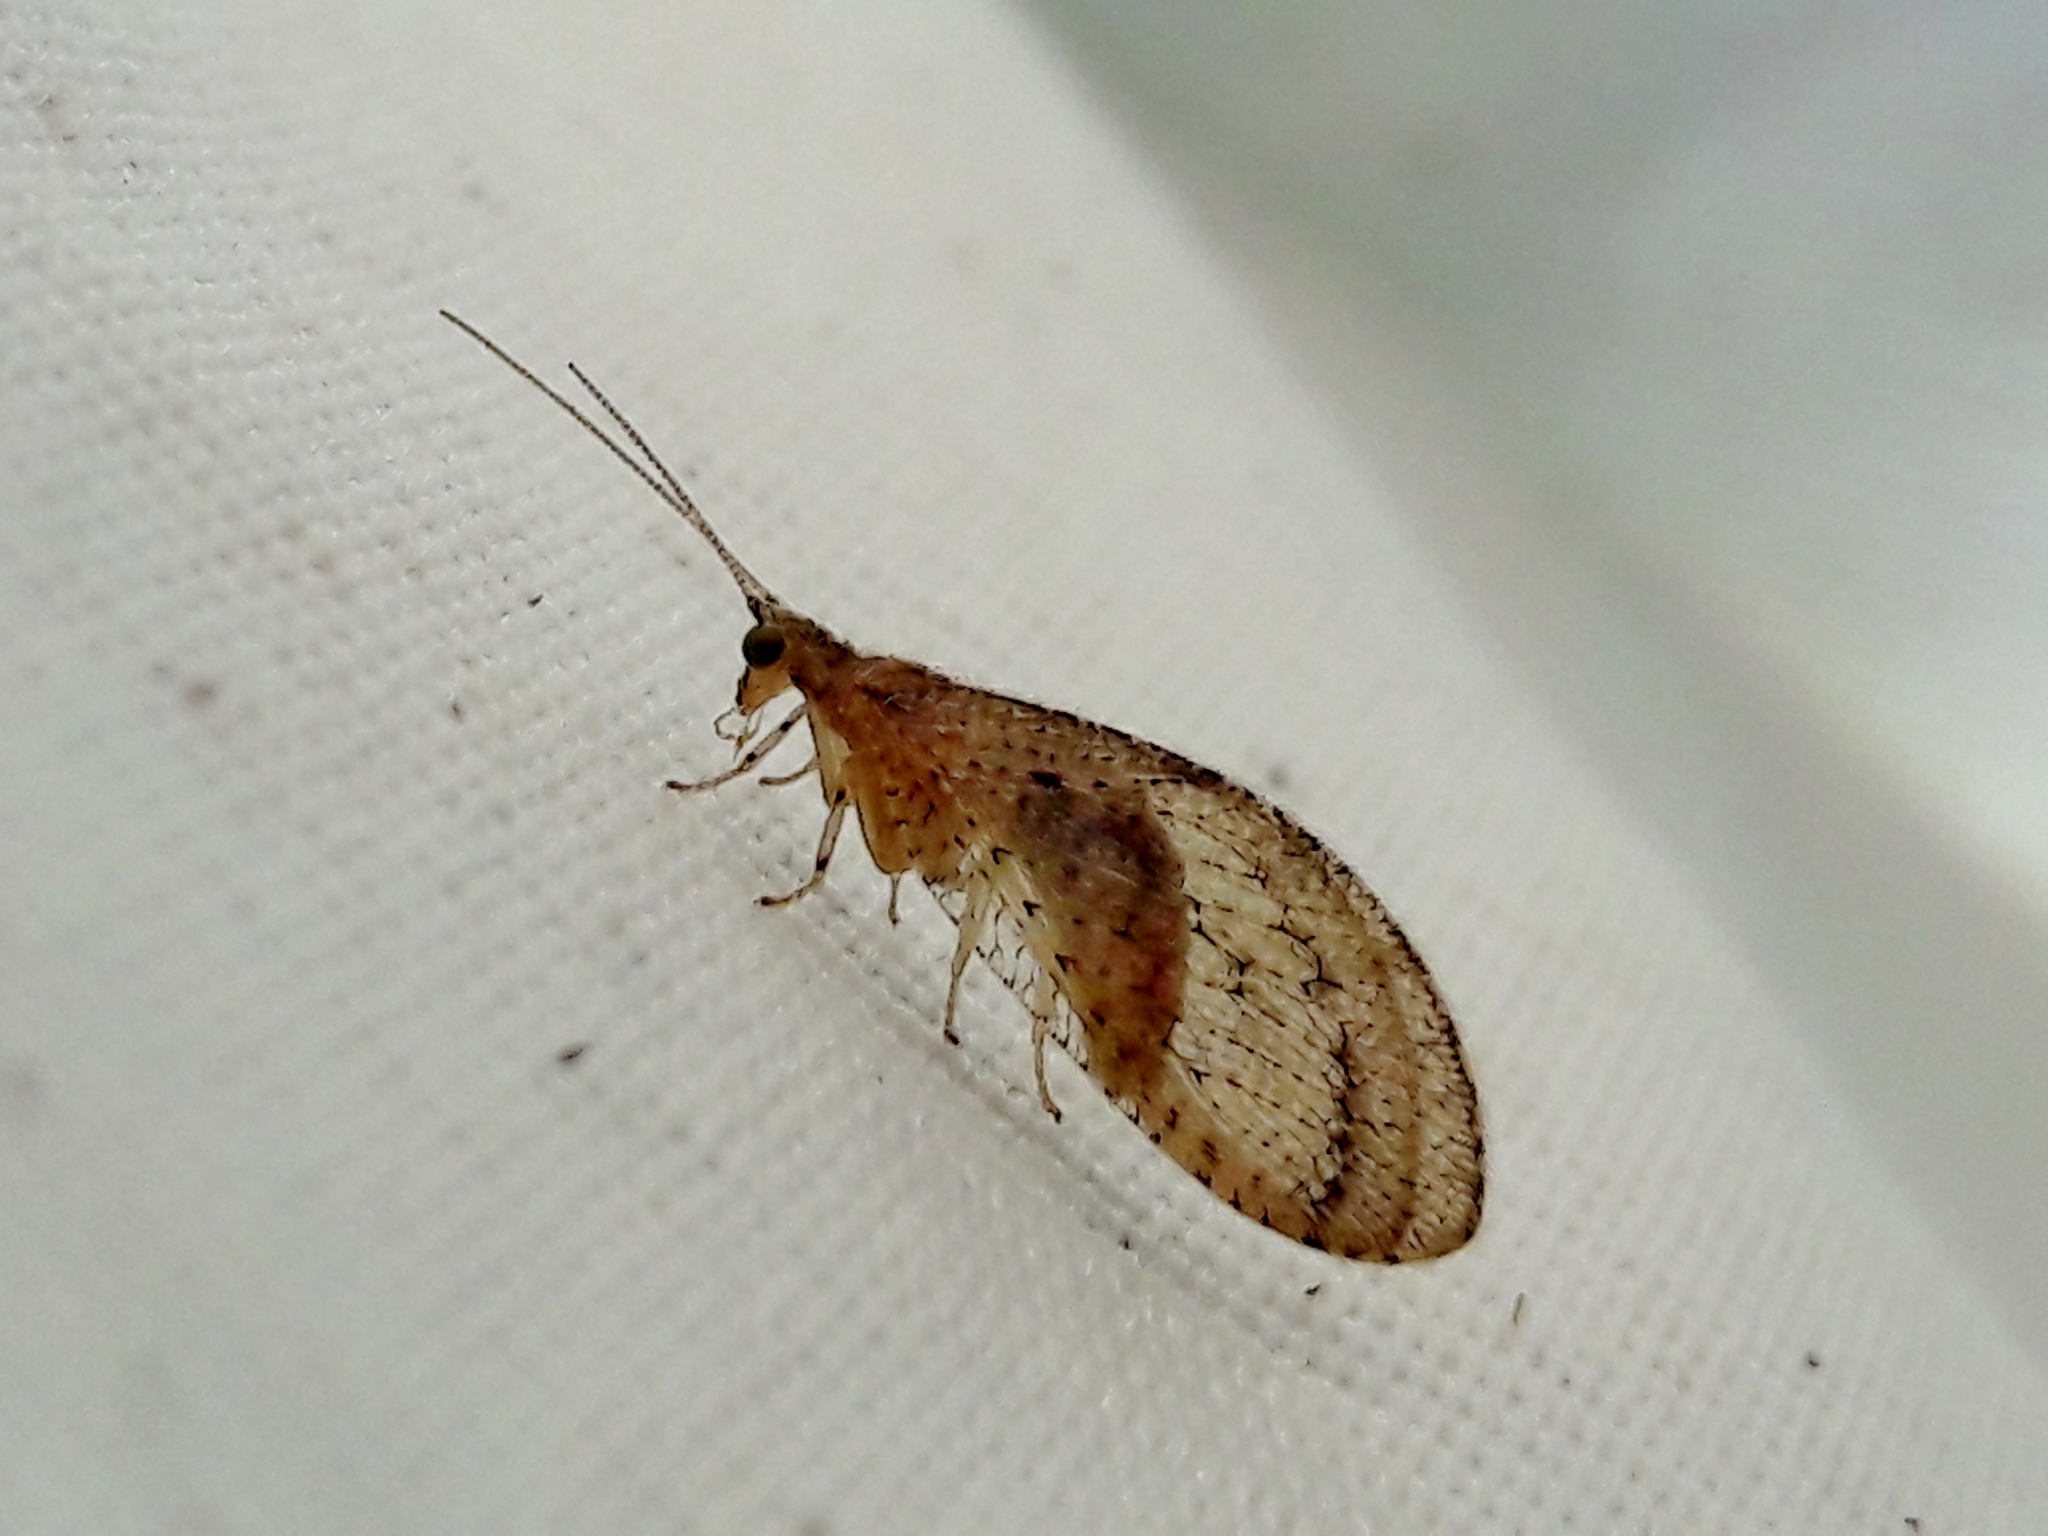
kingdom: Animalia
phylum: Arthropoda
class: Insecta
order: Neuroptera
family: Hemerobiidae
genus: Nusalala
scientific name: Nusalala tessellata
